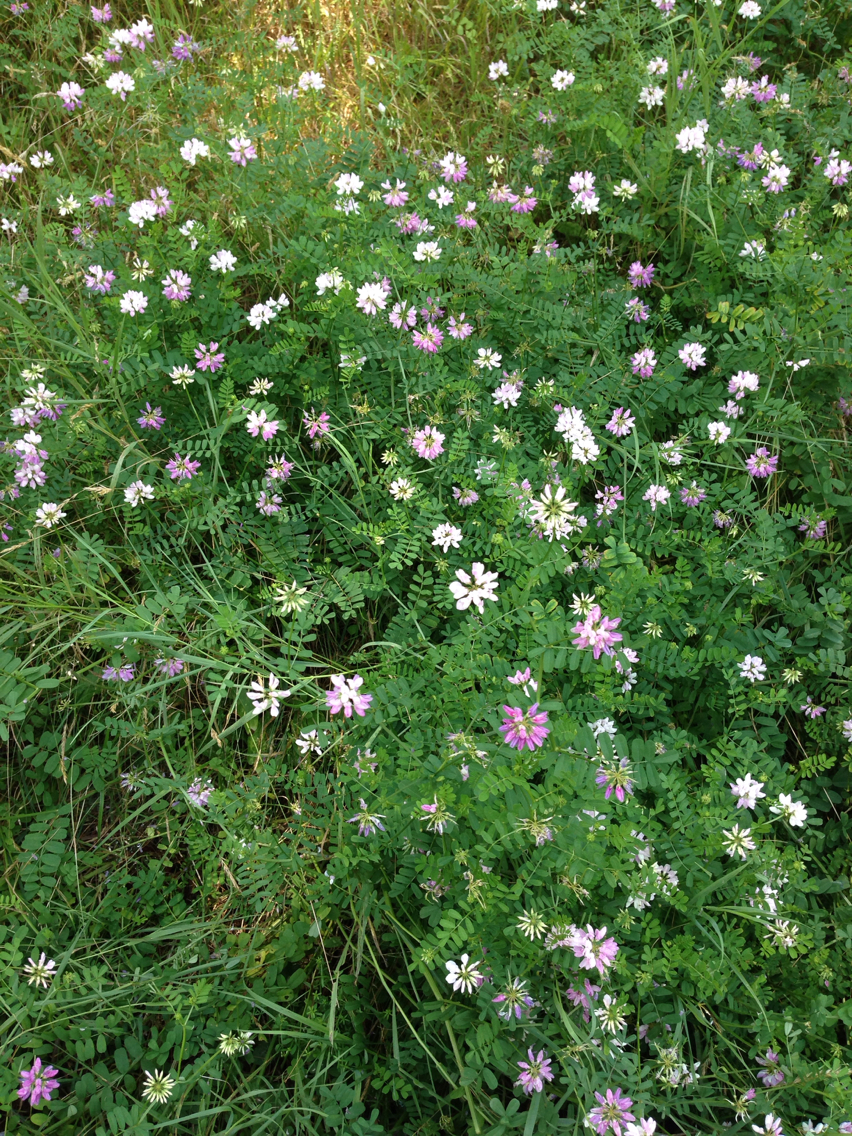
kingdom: Plantae
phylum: Tracheophyta
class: Magnoliopsida
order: Fabales
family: Fabaceae
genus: Coronilla
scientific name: Coronilla varia
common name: Crownvetch
